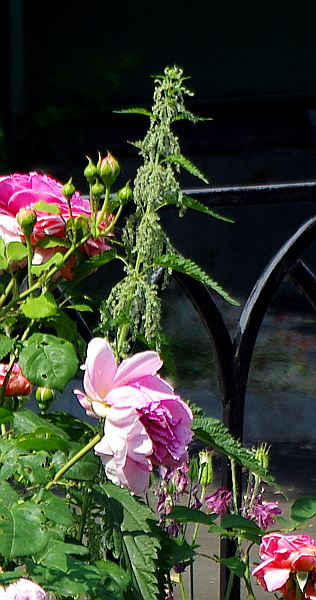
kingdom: Plantae
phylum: Tracheophyta
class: Magnoliopsida
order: Rosales
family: Urticaceae
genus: Urtica
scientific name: Urtica dioica
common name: Common nettle
